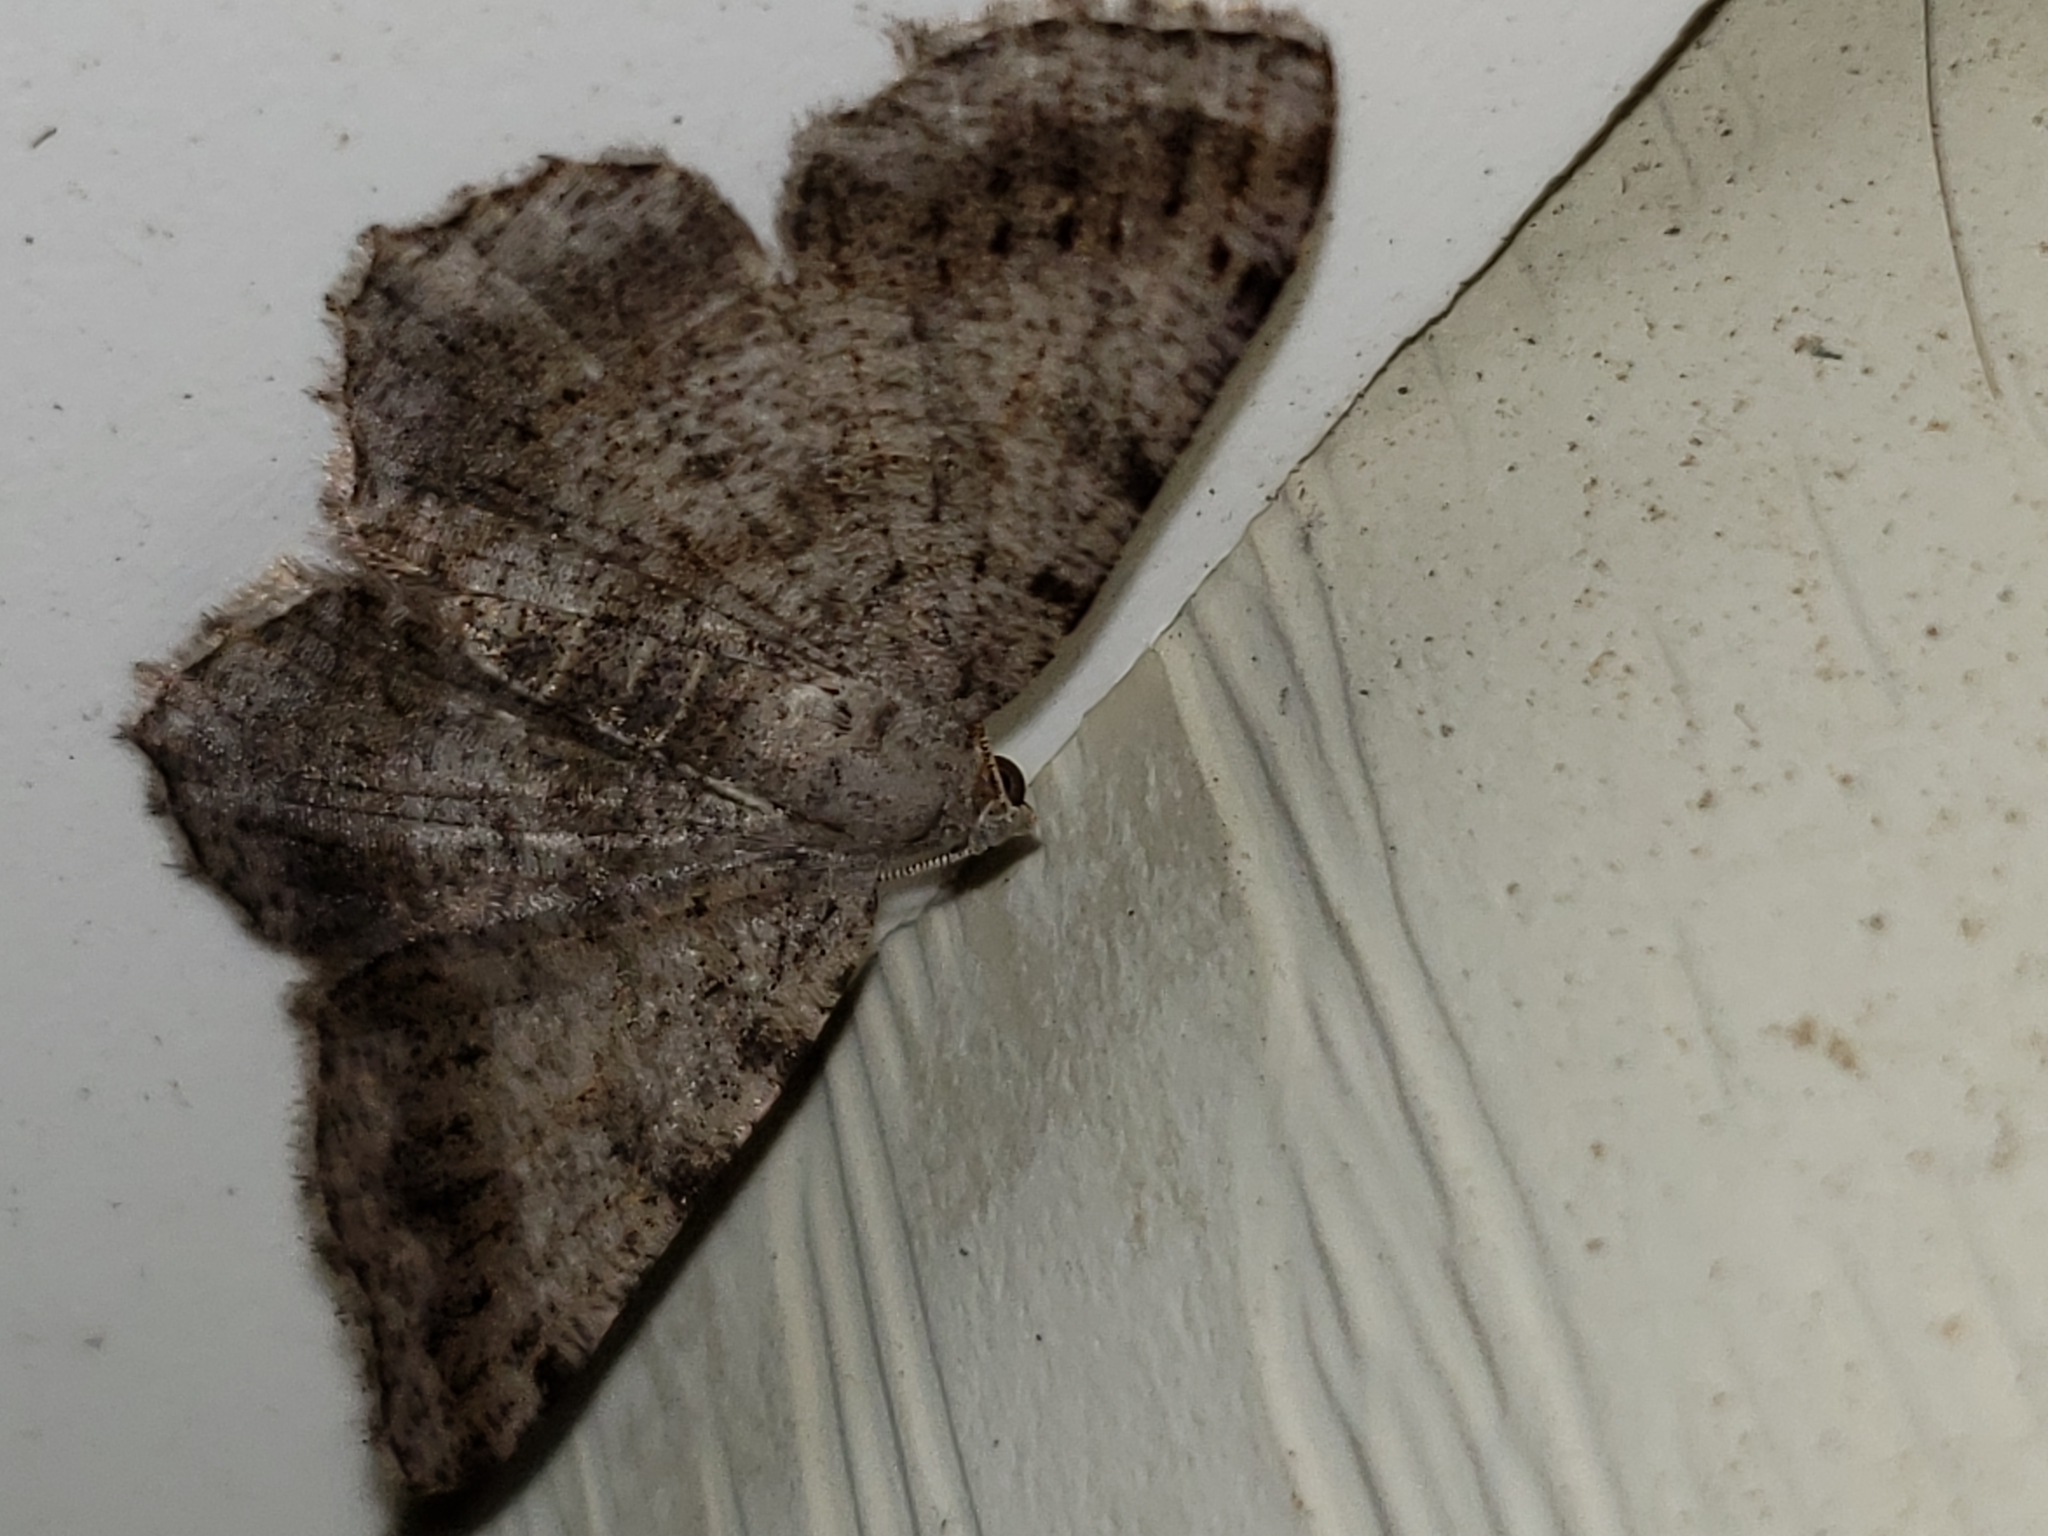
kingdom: Animalia
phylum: Arthropoda
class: Insecta
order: Lepidoptera
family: Geometridae
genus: Digrammia
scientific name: Digrammia ocellinata
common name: Faint-spotted angle
